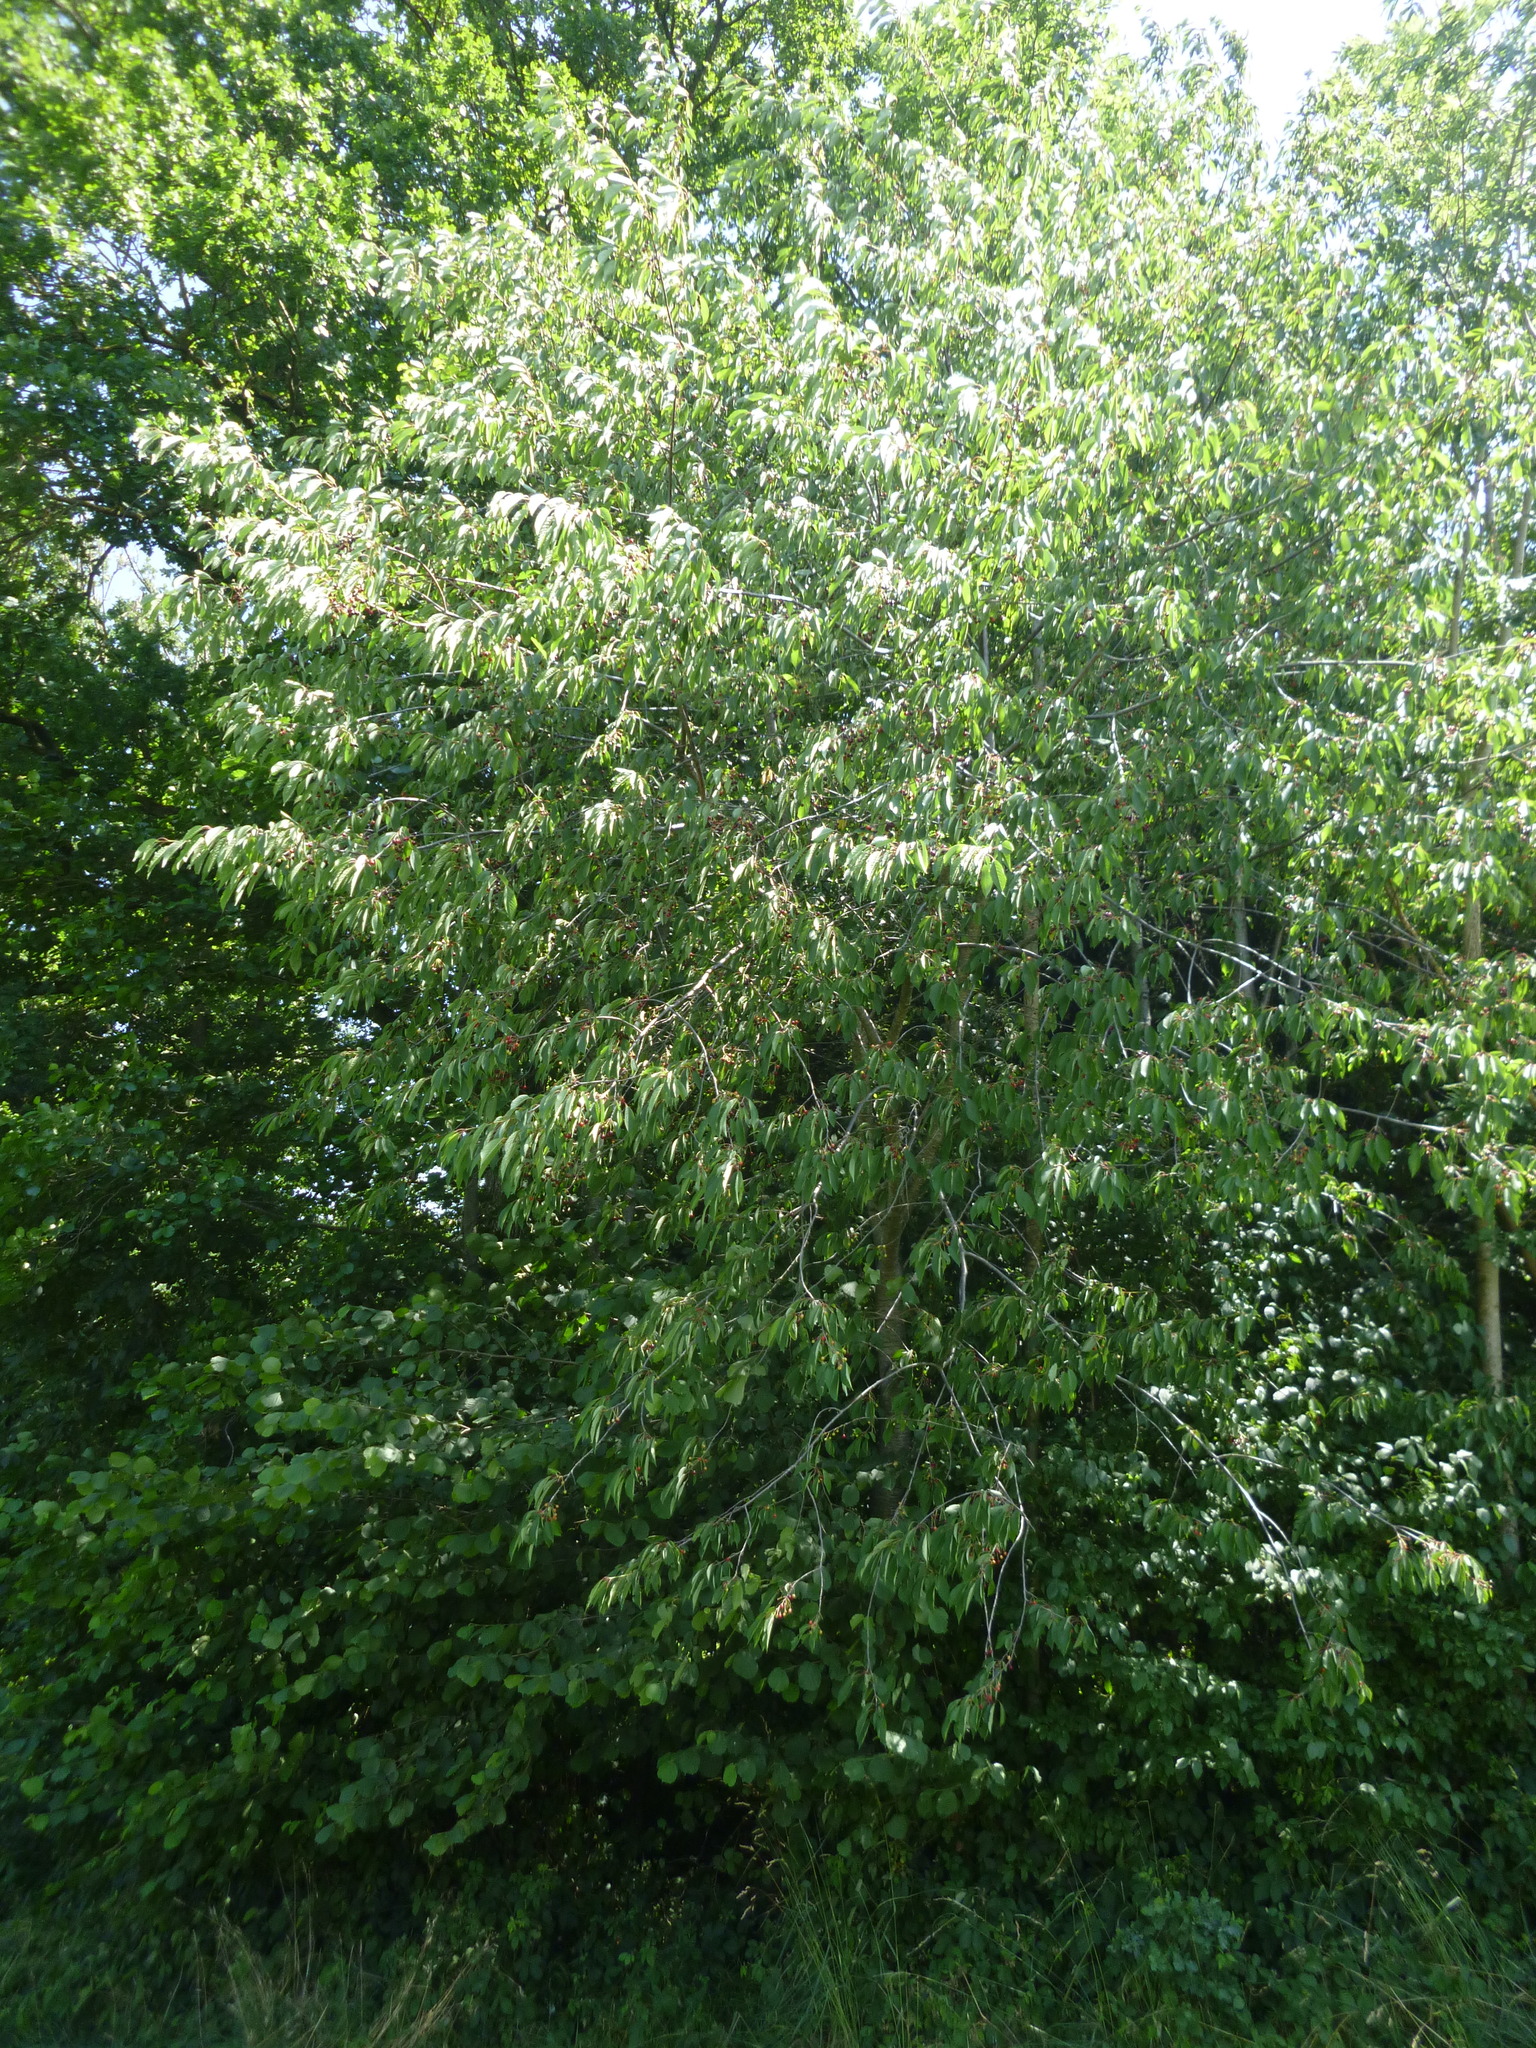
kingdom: Plantae
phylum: Tracheophyta
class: Magnoliopsida
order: Rosales
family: Rosaceae
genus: Prunus
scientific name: Prunus avium
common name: Sweet cherry
